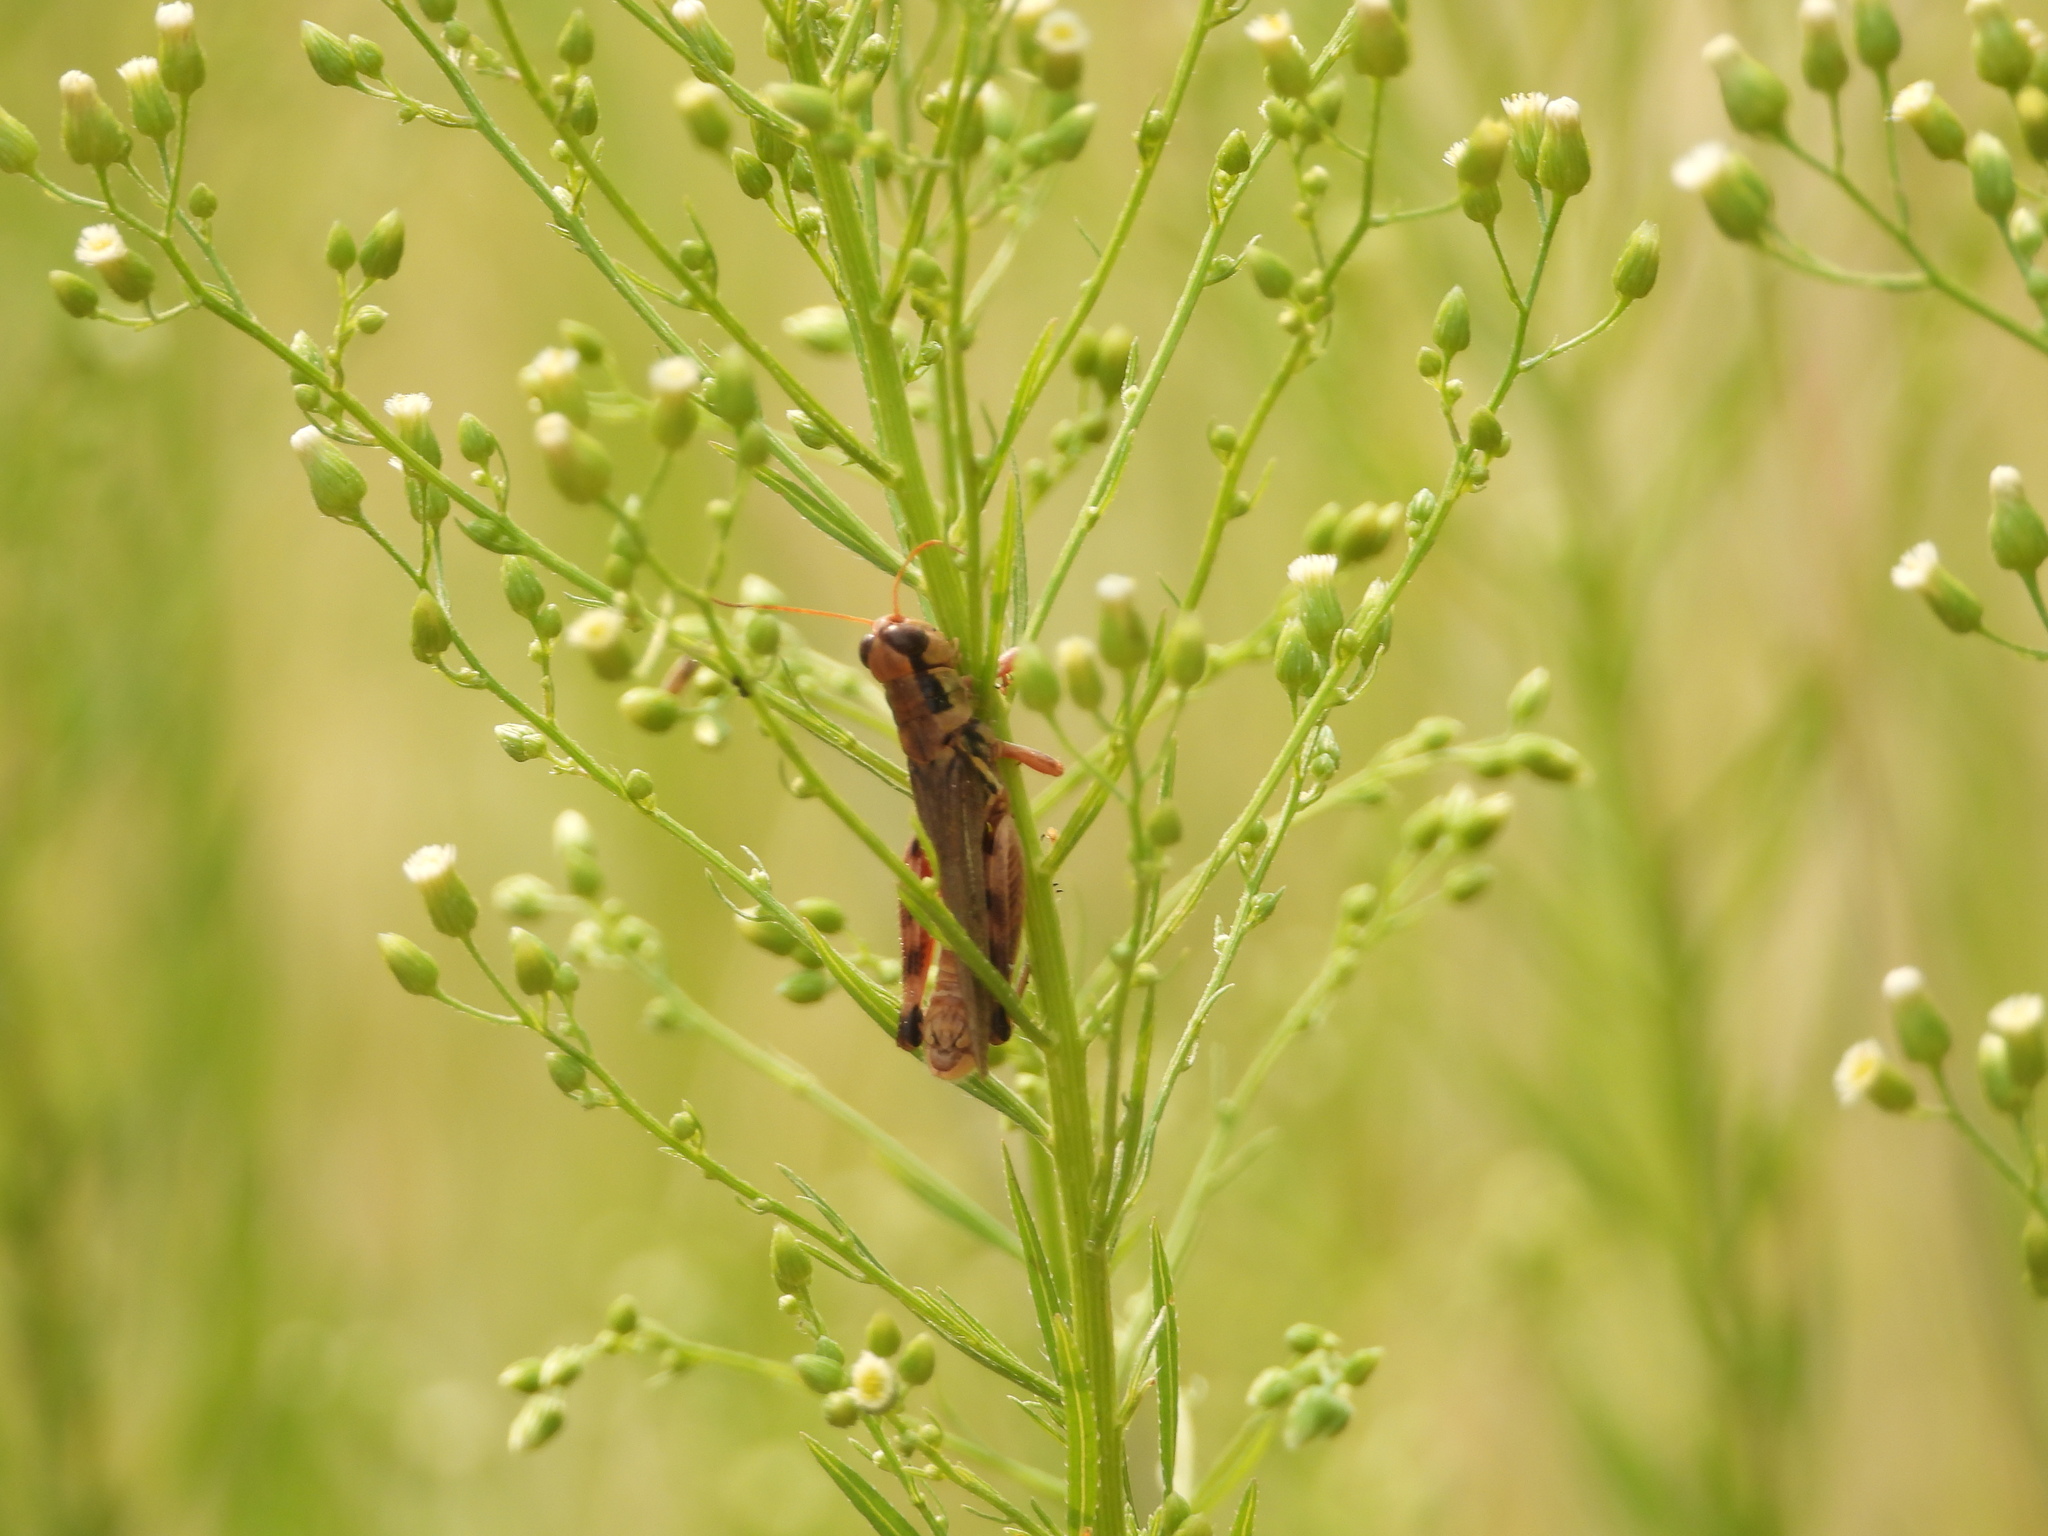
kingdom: Animalia
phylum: Arthropoda
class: Insecta
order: Orthoptera
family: Acrididae
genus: Melanoplus
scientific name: Melanoplus sanguinipes
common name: Migratory grasshopper
